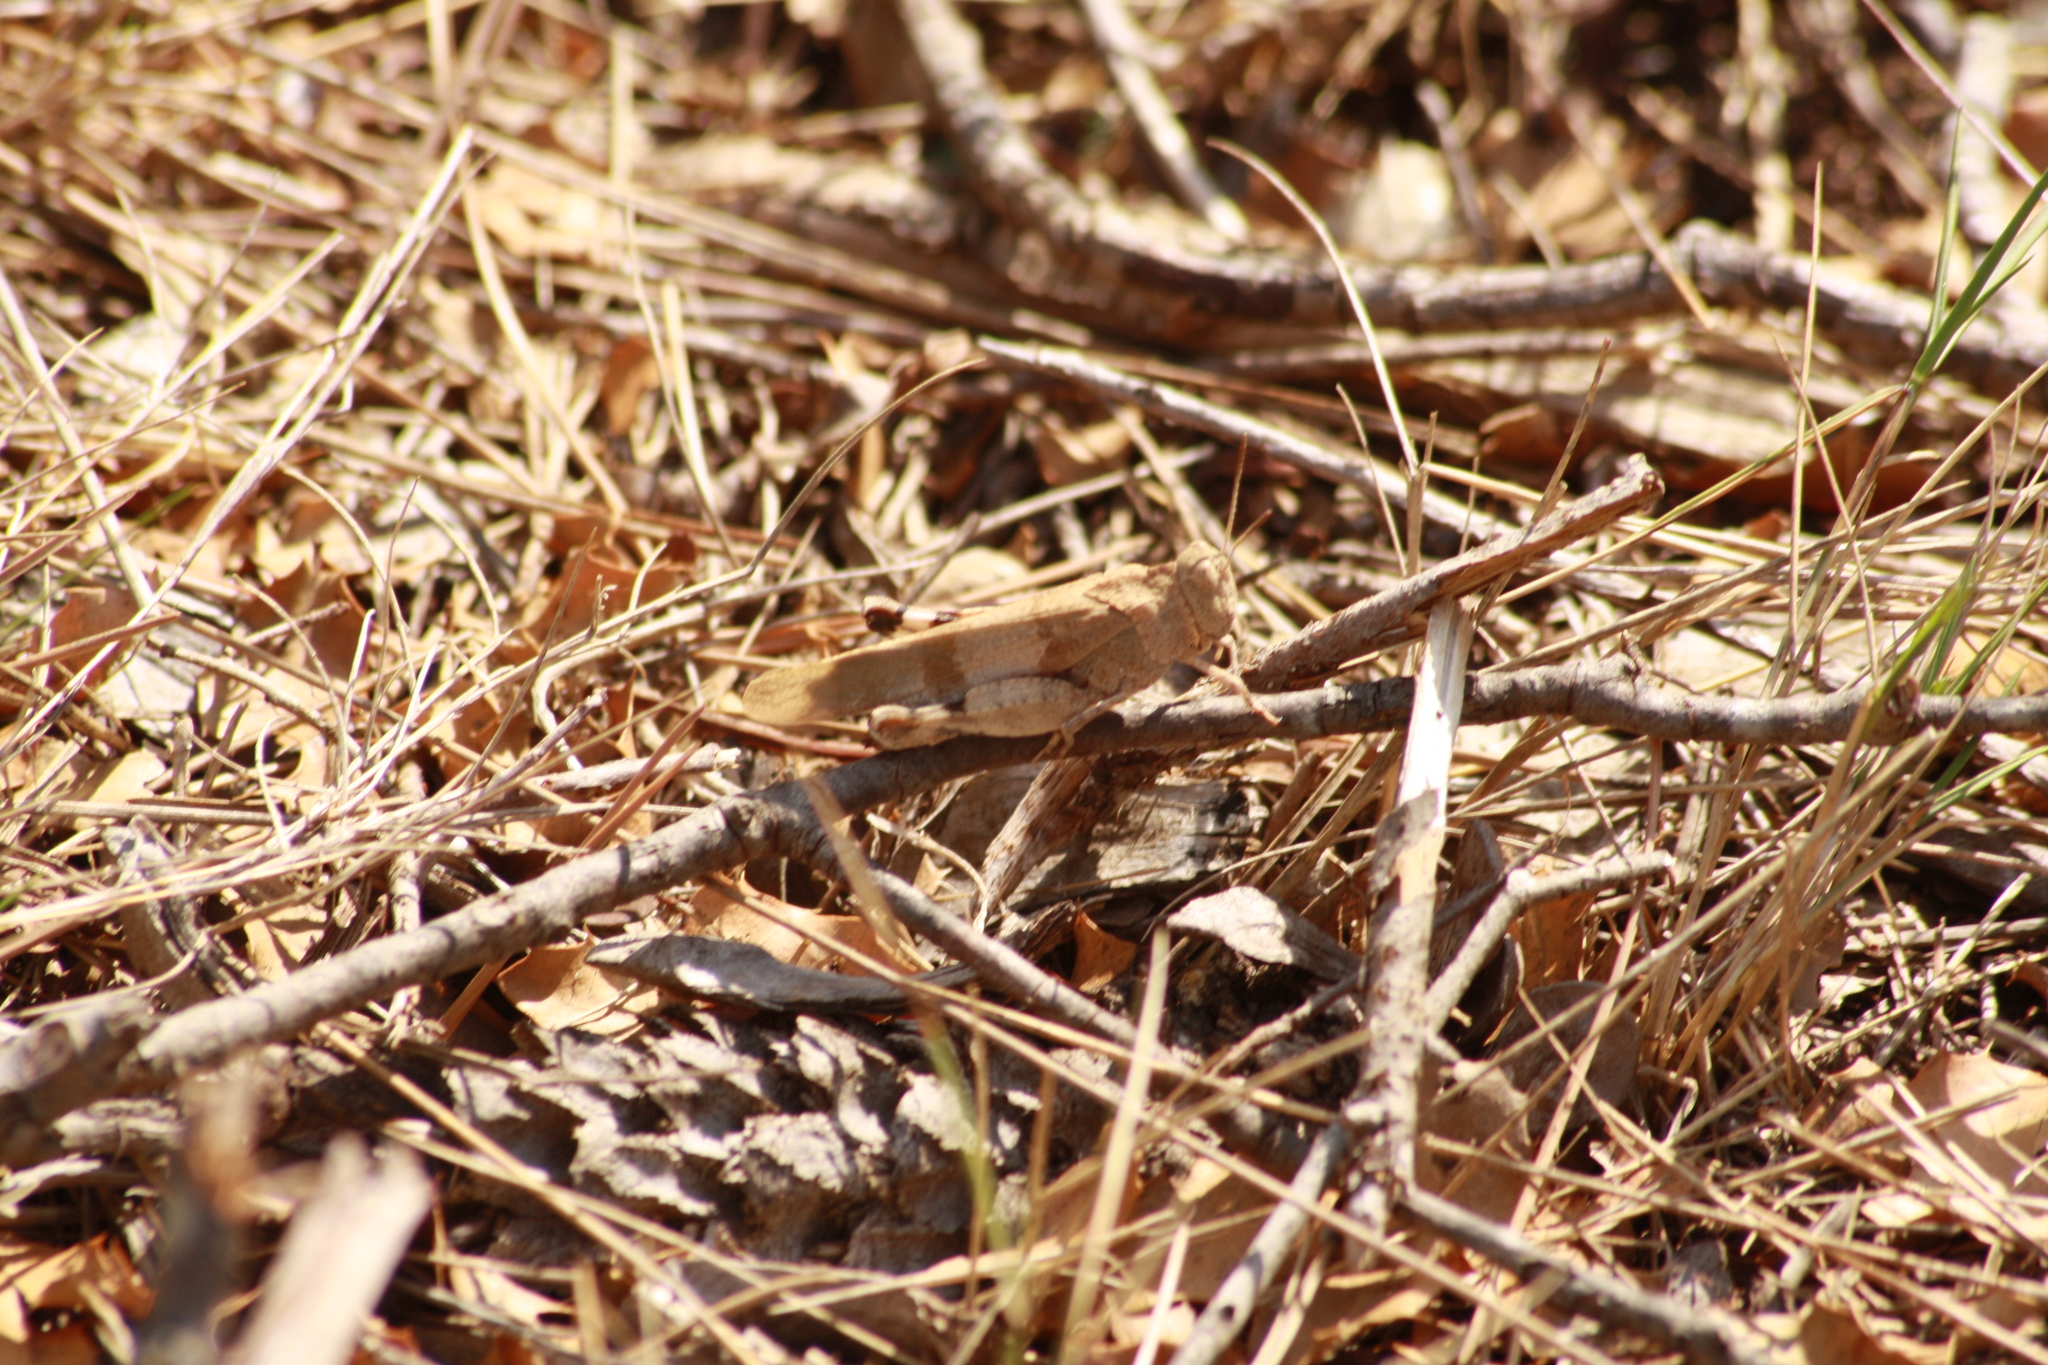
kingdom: Animalia
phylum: Arthropoda
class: Insecta
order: Orthoptera
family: Acrididae
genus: Oedipoda
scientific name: Oedipoda caerulescens
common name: Blue-winged grasshopper
